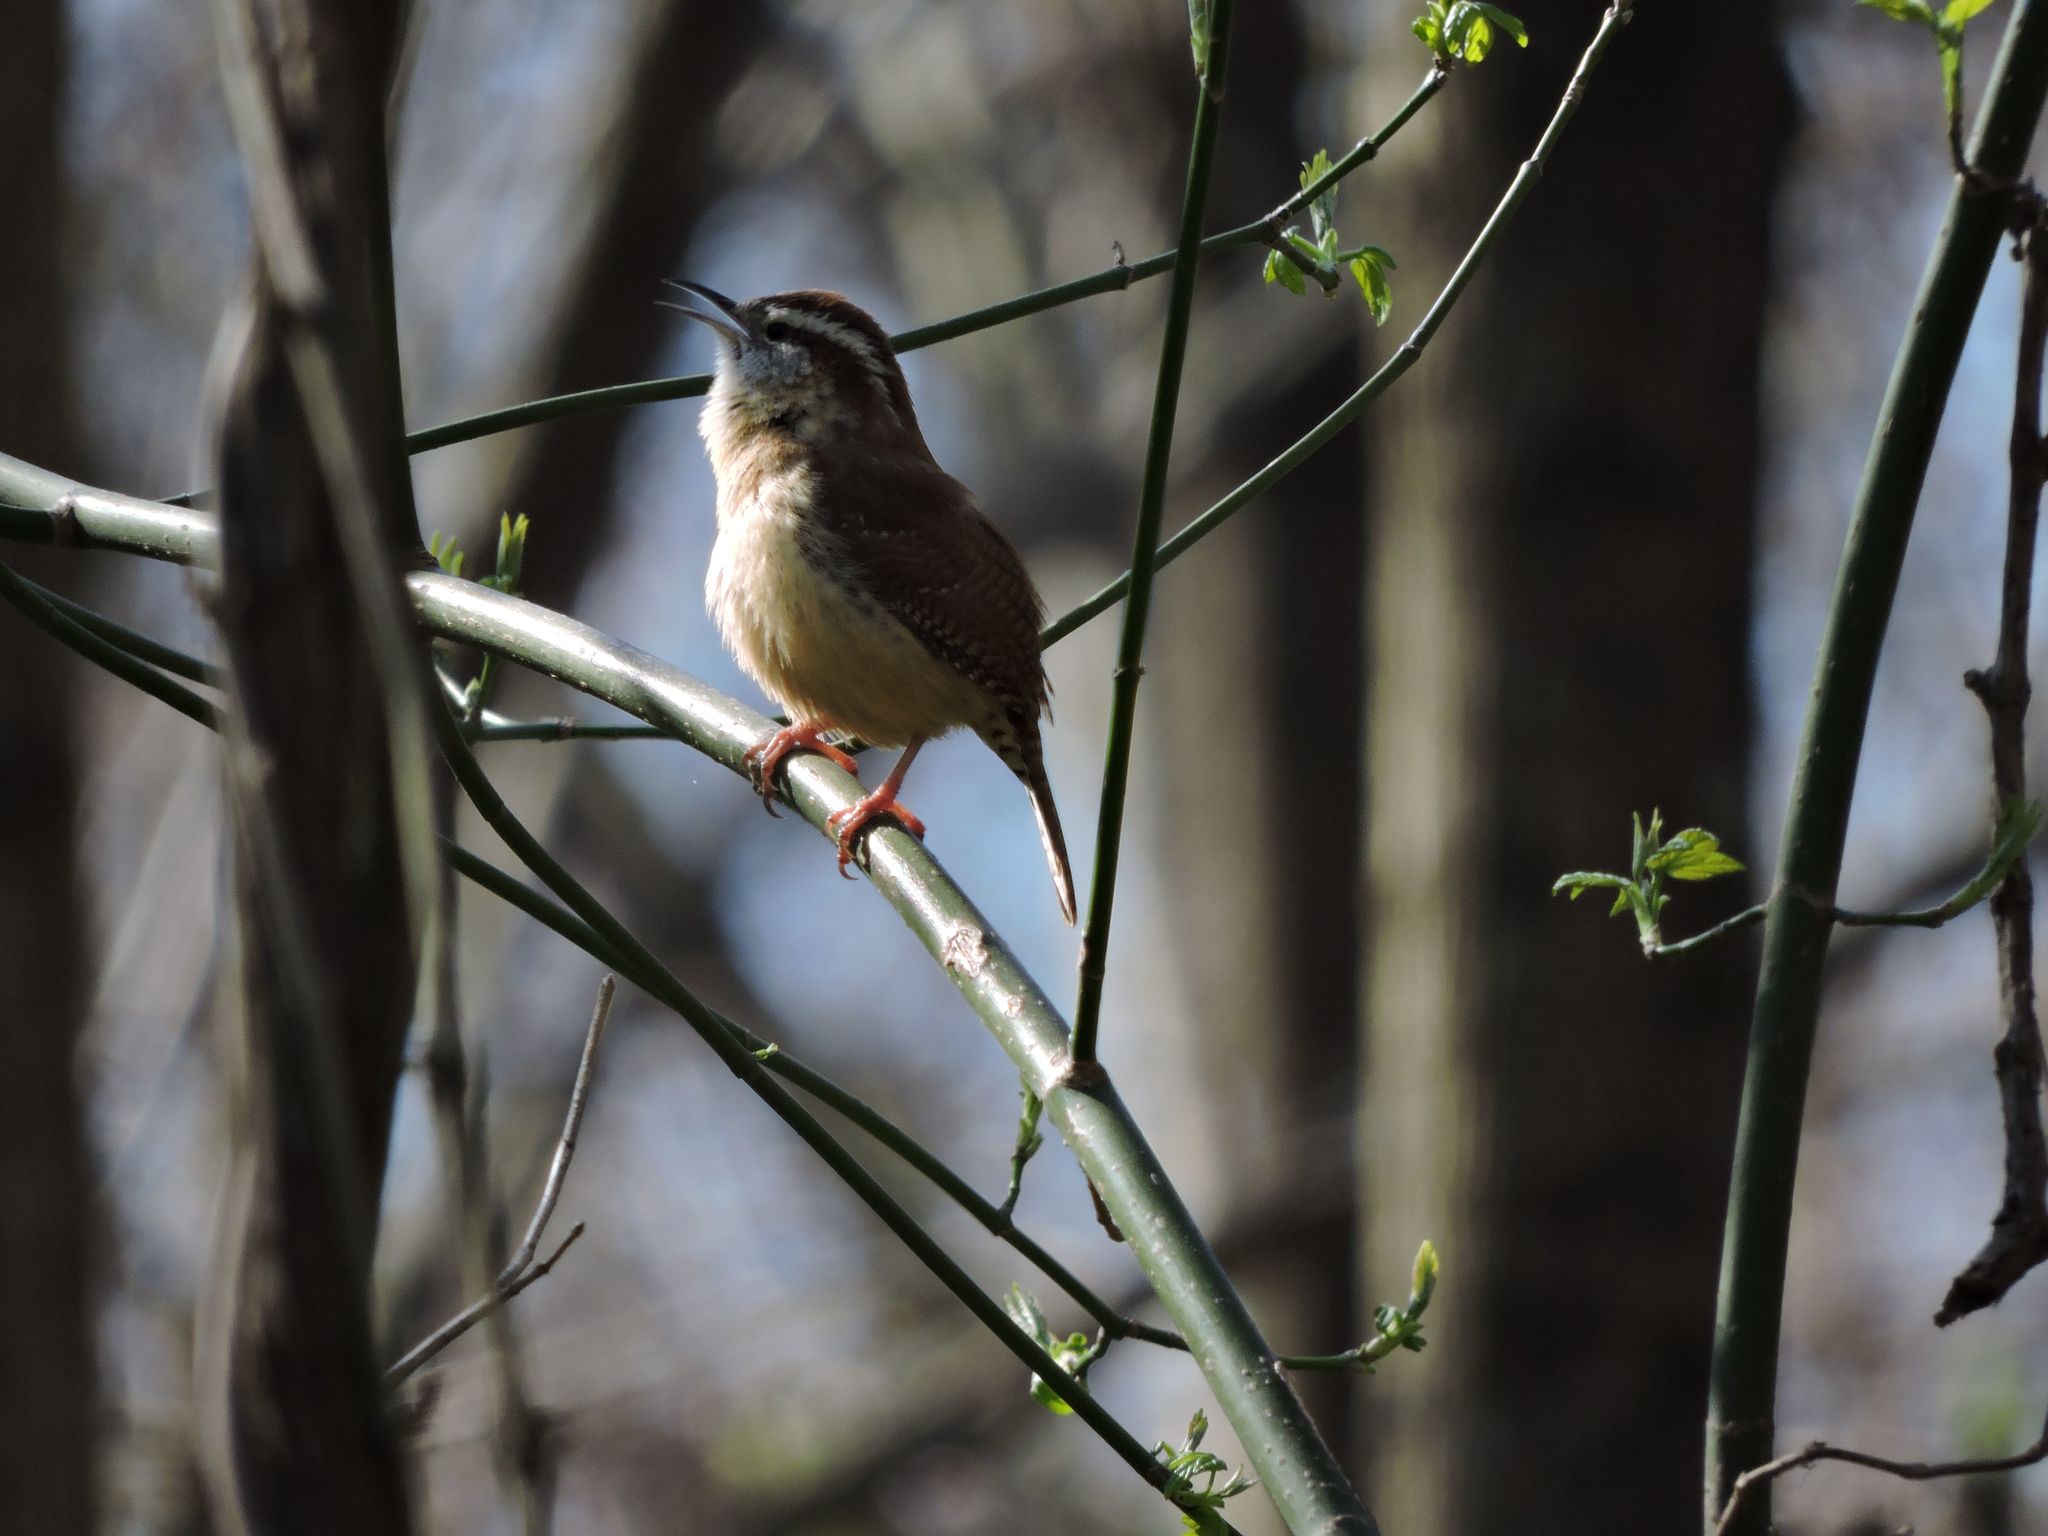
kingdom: Animalia
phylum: Chordata
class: Aves
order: Passeriformes
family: Troglodytidae
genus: Thryothorus
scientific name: Thryothorus ludovicianus
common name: Carolina wren
